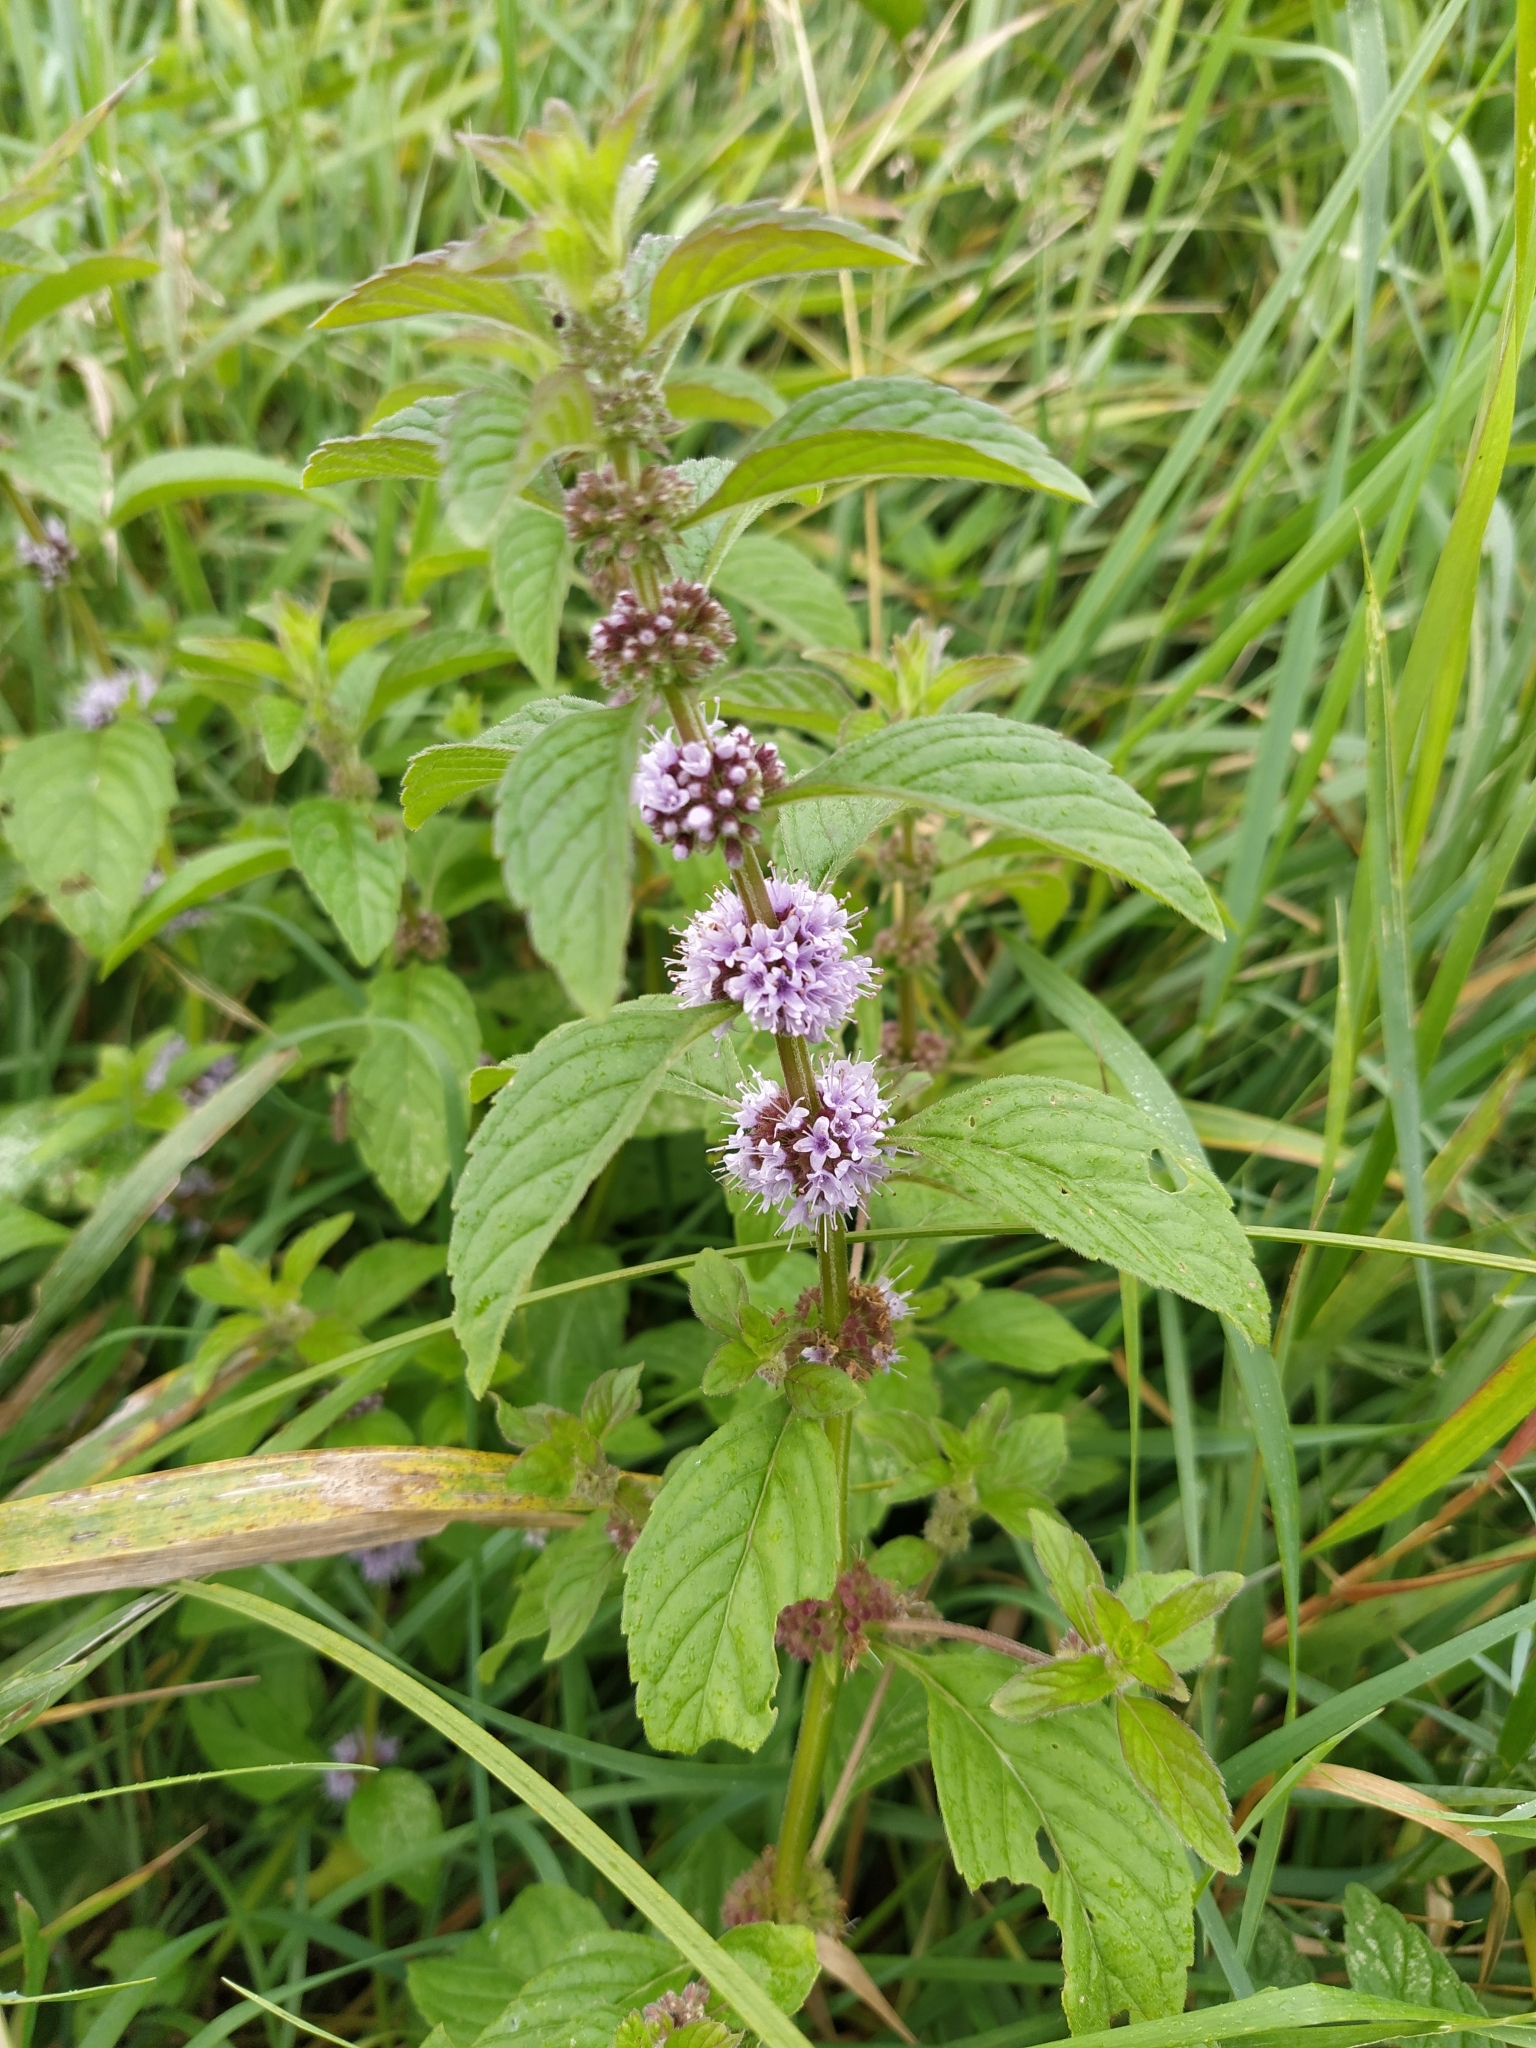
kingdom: Plantae
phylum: Tracheophyta
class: Magnoliopsida
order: Lamiales
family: Lamiaceae
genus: Mentha
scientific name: Mentha arvensis
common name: Corn mint
